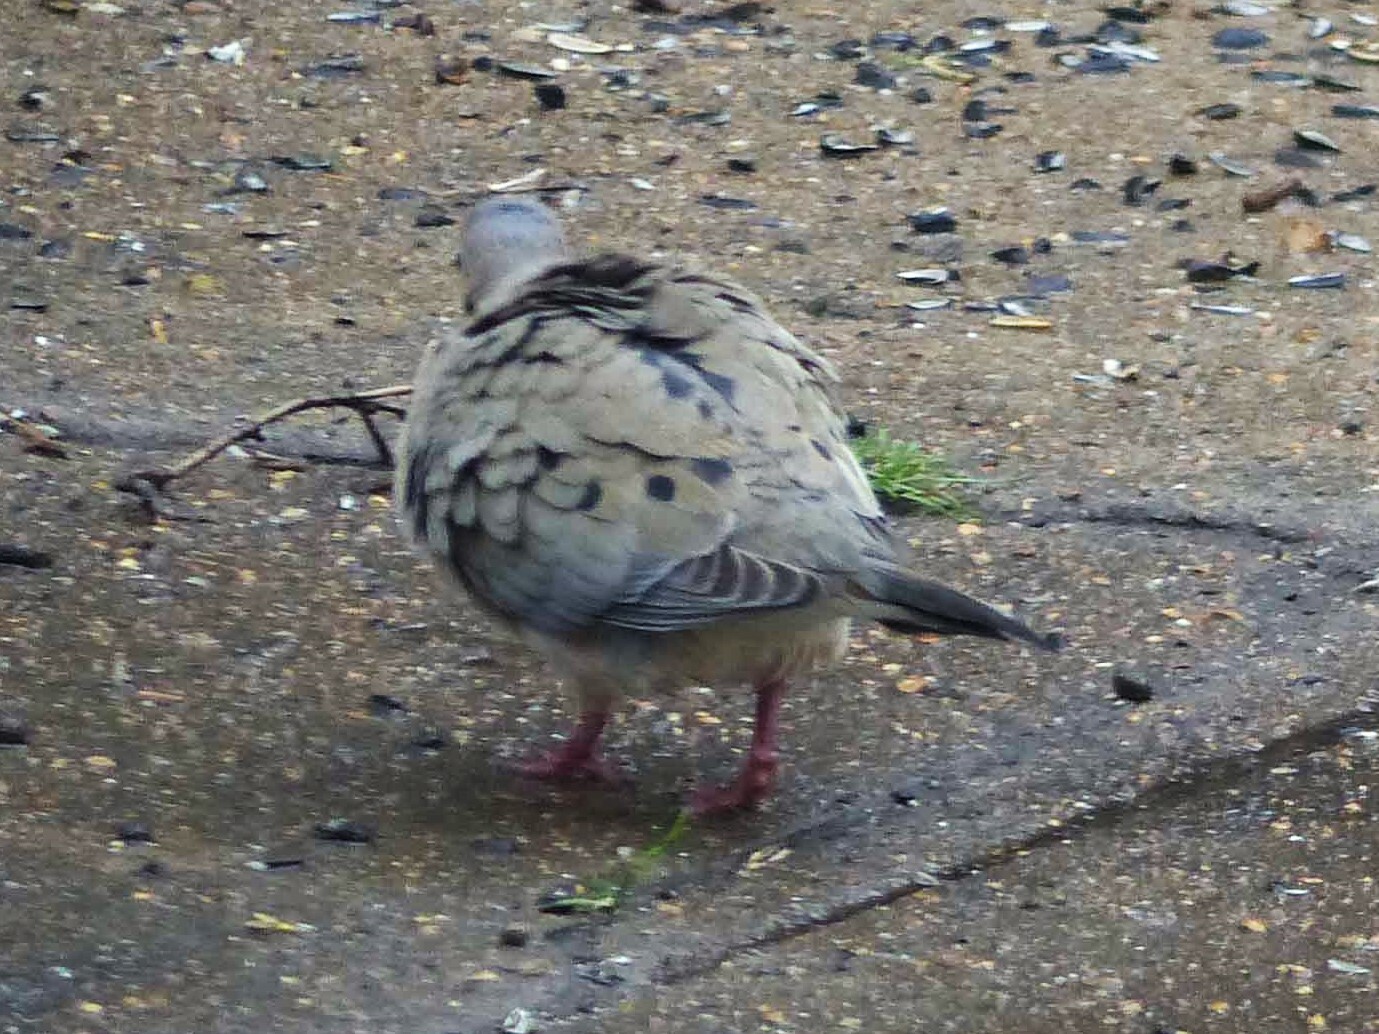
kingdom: Animalia
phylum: Chordata
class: Aves
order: Columbiformes
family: Columbidae
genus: Zenaida
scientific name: Zenaida macroura
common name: Mourning dove
